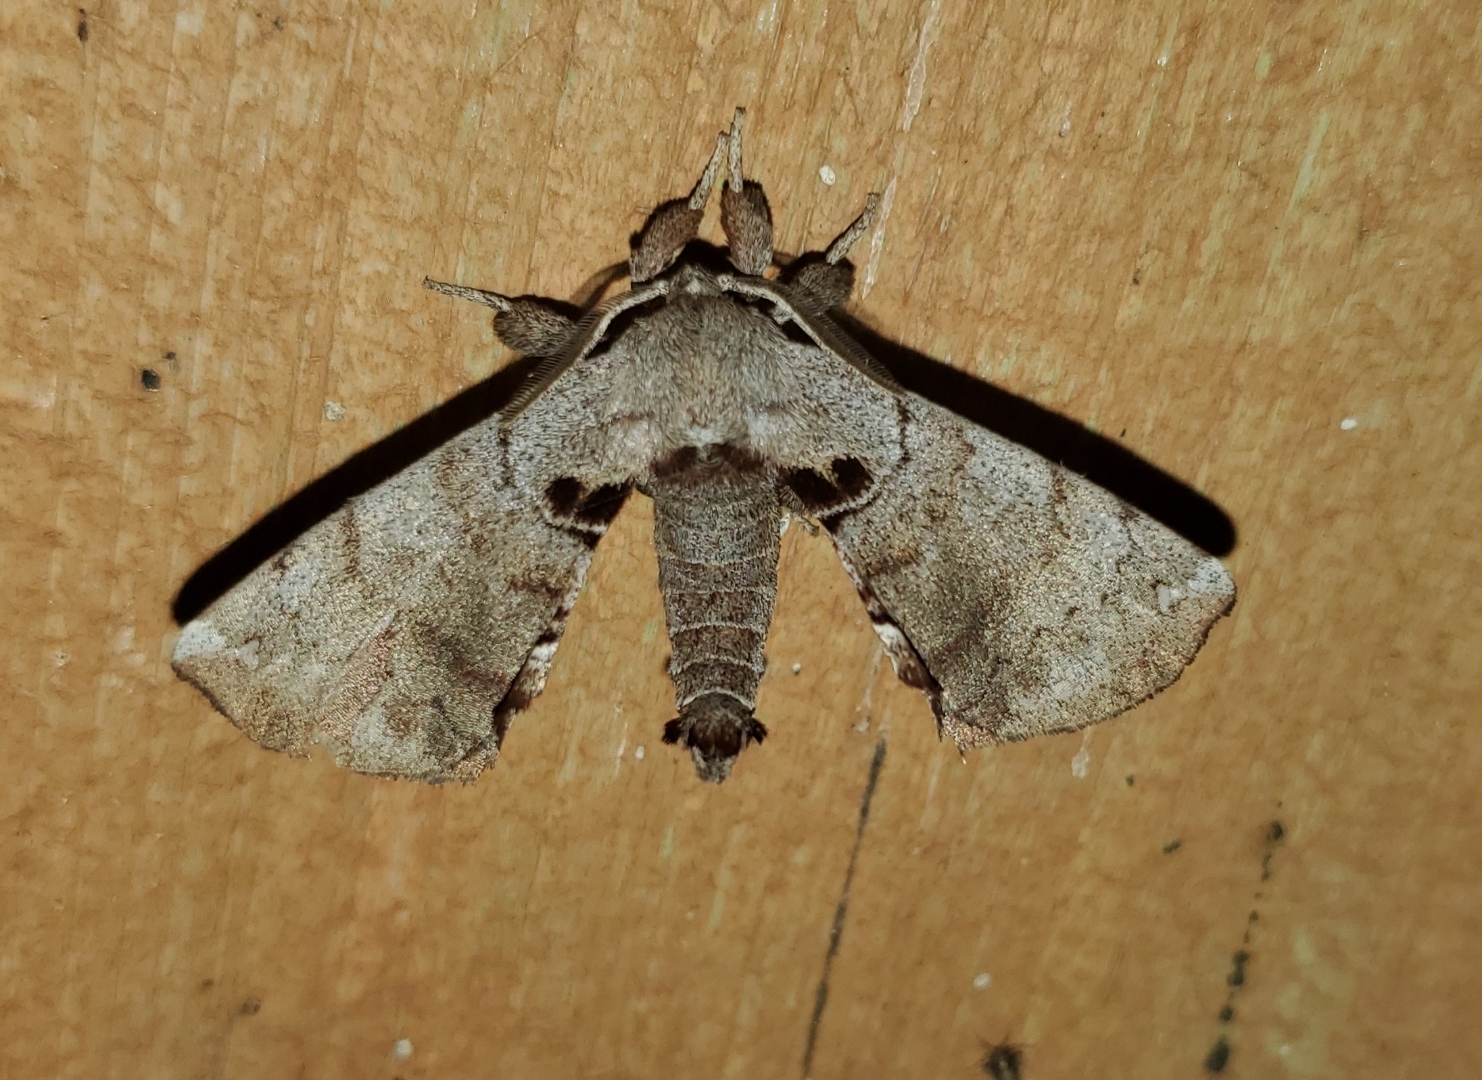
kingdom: Animalia
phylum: Arthropoda
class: Insecta
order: Lepidoptera
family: Apatelodidae
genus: Hygrochroa
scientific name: Hygrochroa Apatelodes torrefacta
